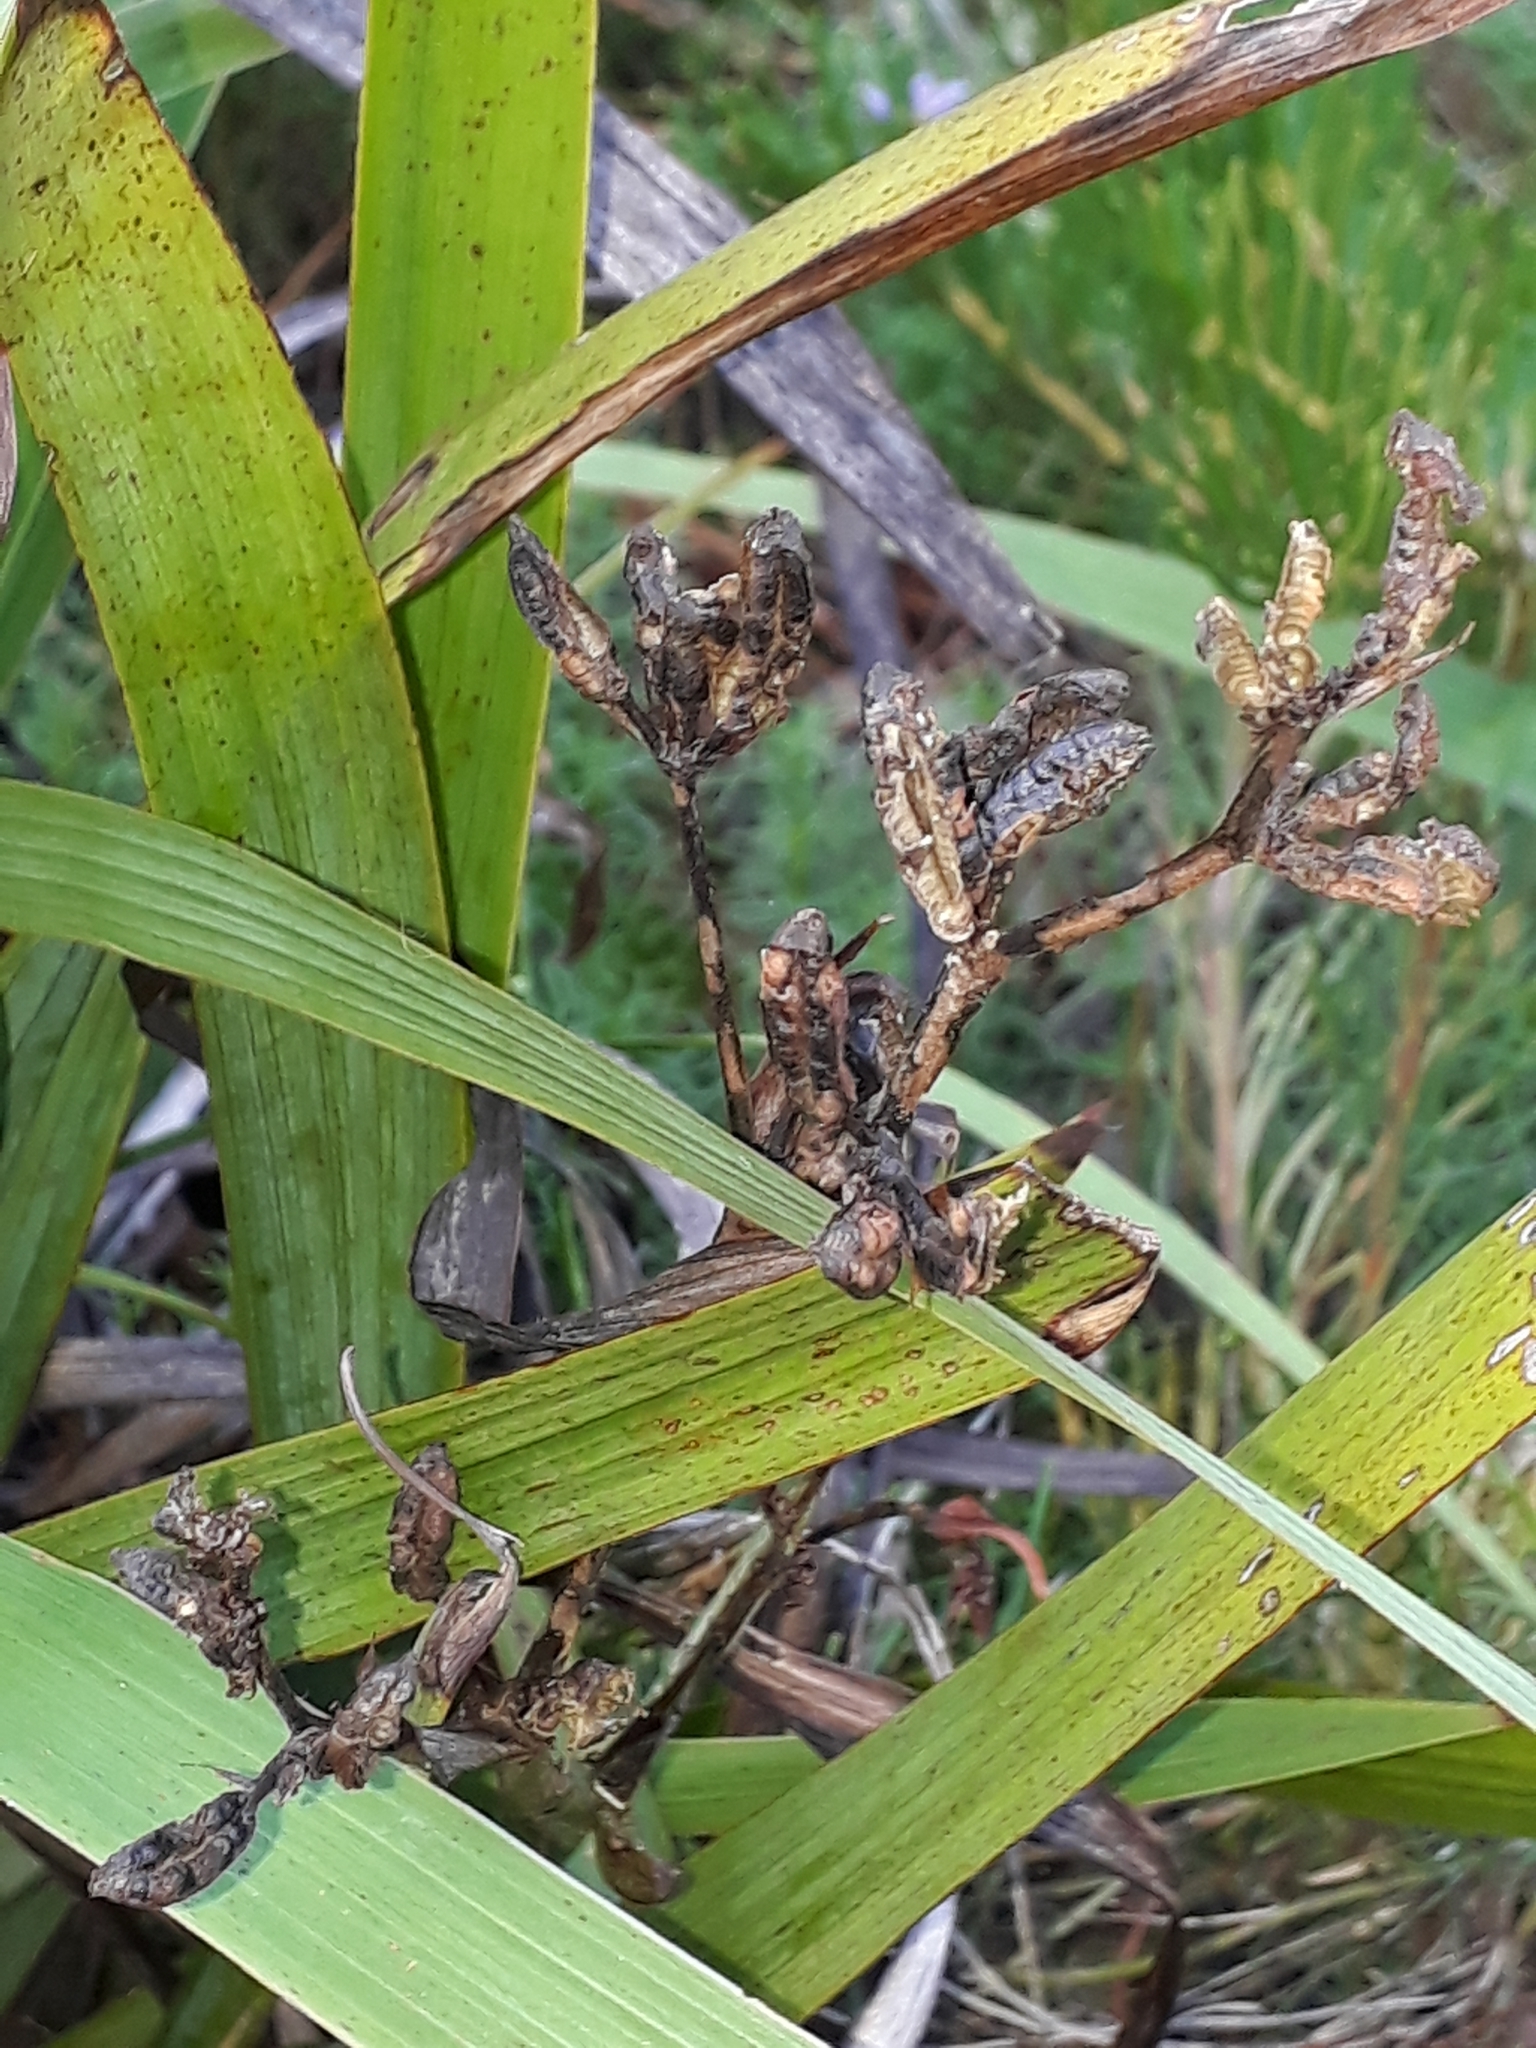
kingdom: Plantae
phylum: Tracheophyta
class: Liliopsida
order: Asparagales
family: Iridaceae
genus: Aristea
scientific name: Aristea ecklonii
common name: Blue corn-lily
